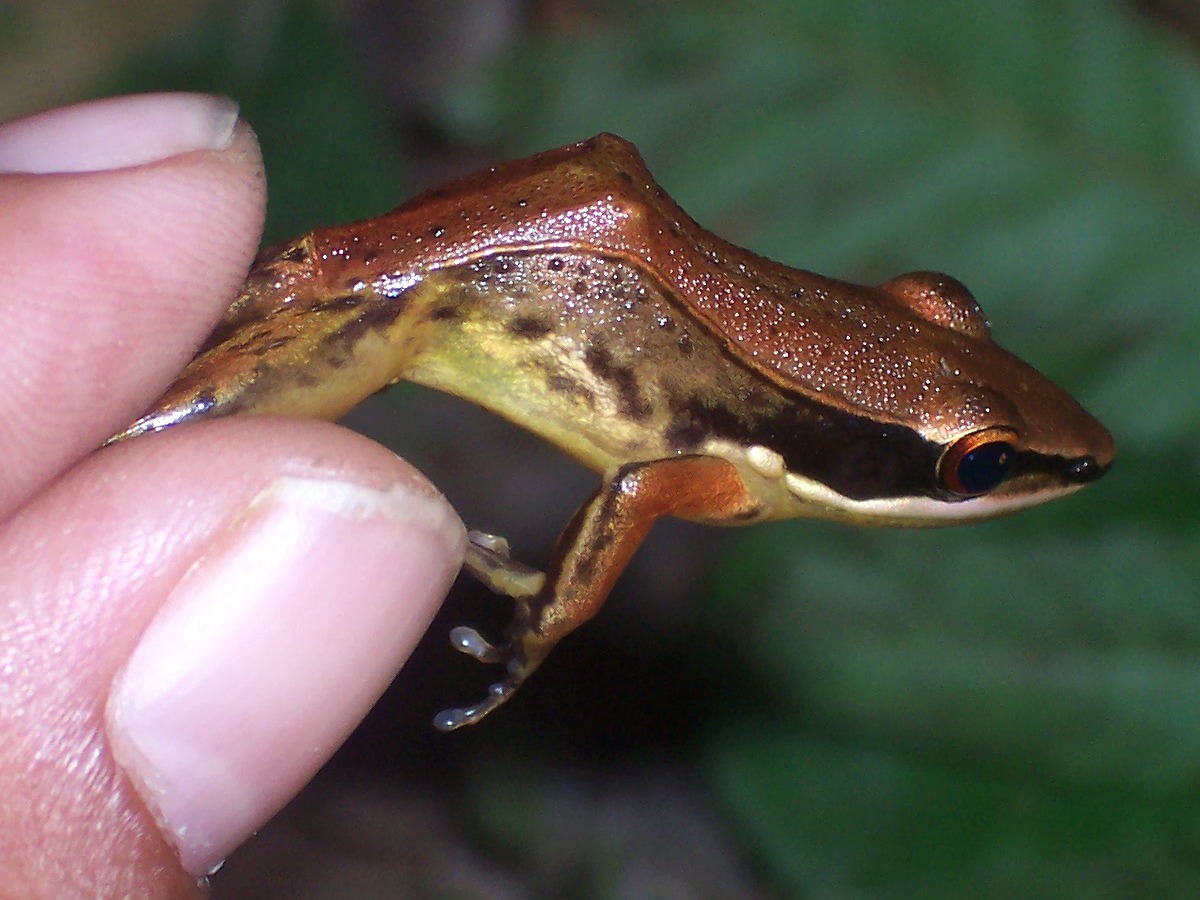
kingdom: Animalia
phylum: Chordata
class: Amphibia
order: Anura
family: Ranidae
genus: Bijurana
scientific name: Bijurana nicobariensis
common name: Cricket frog
